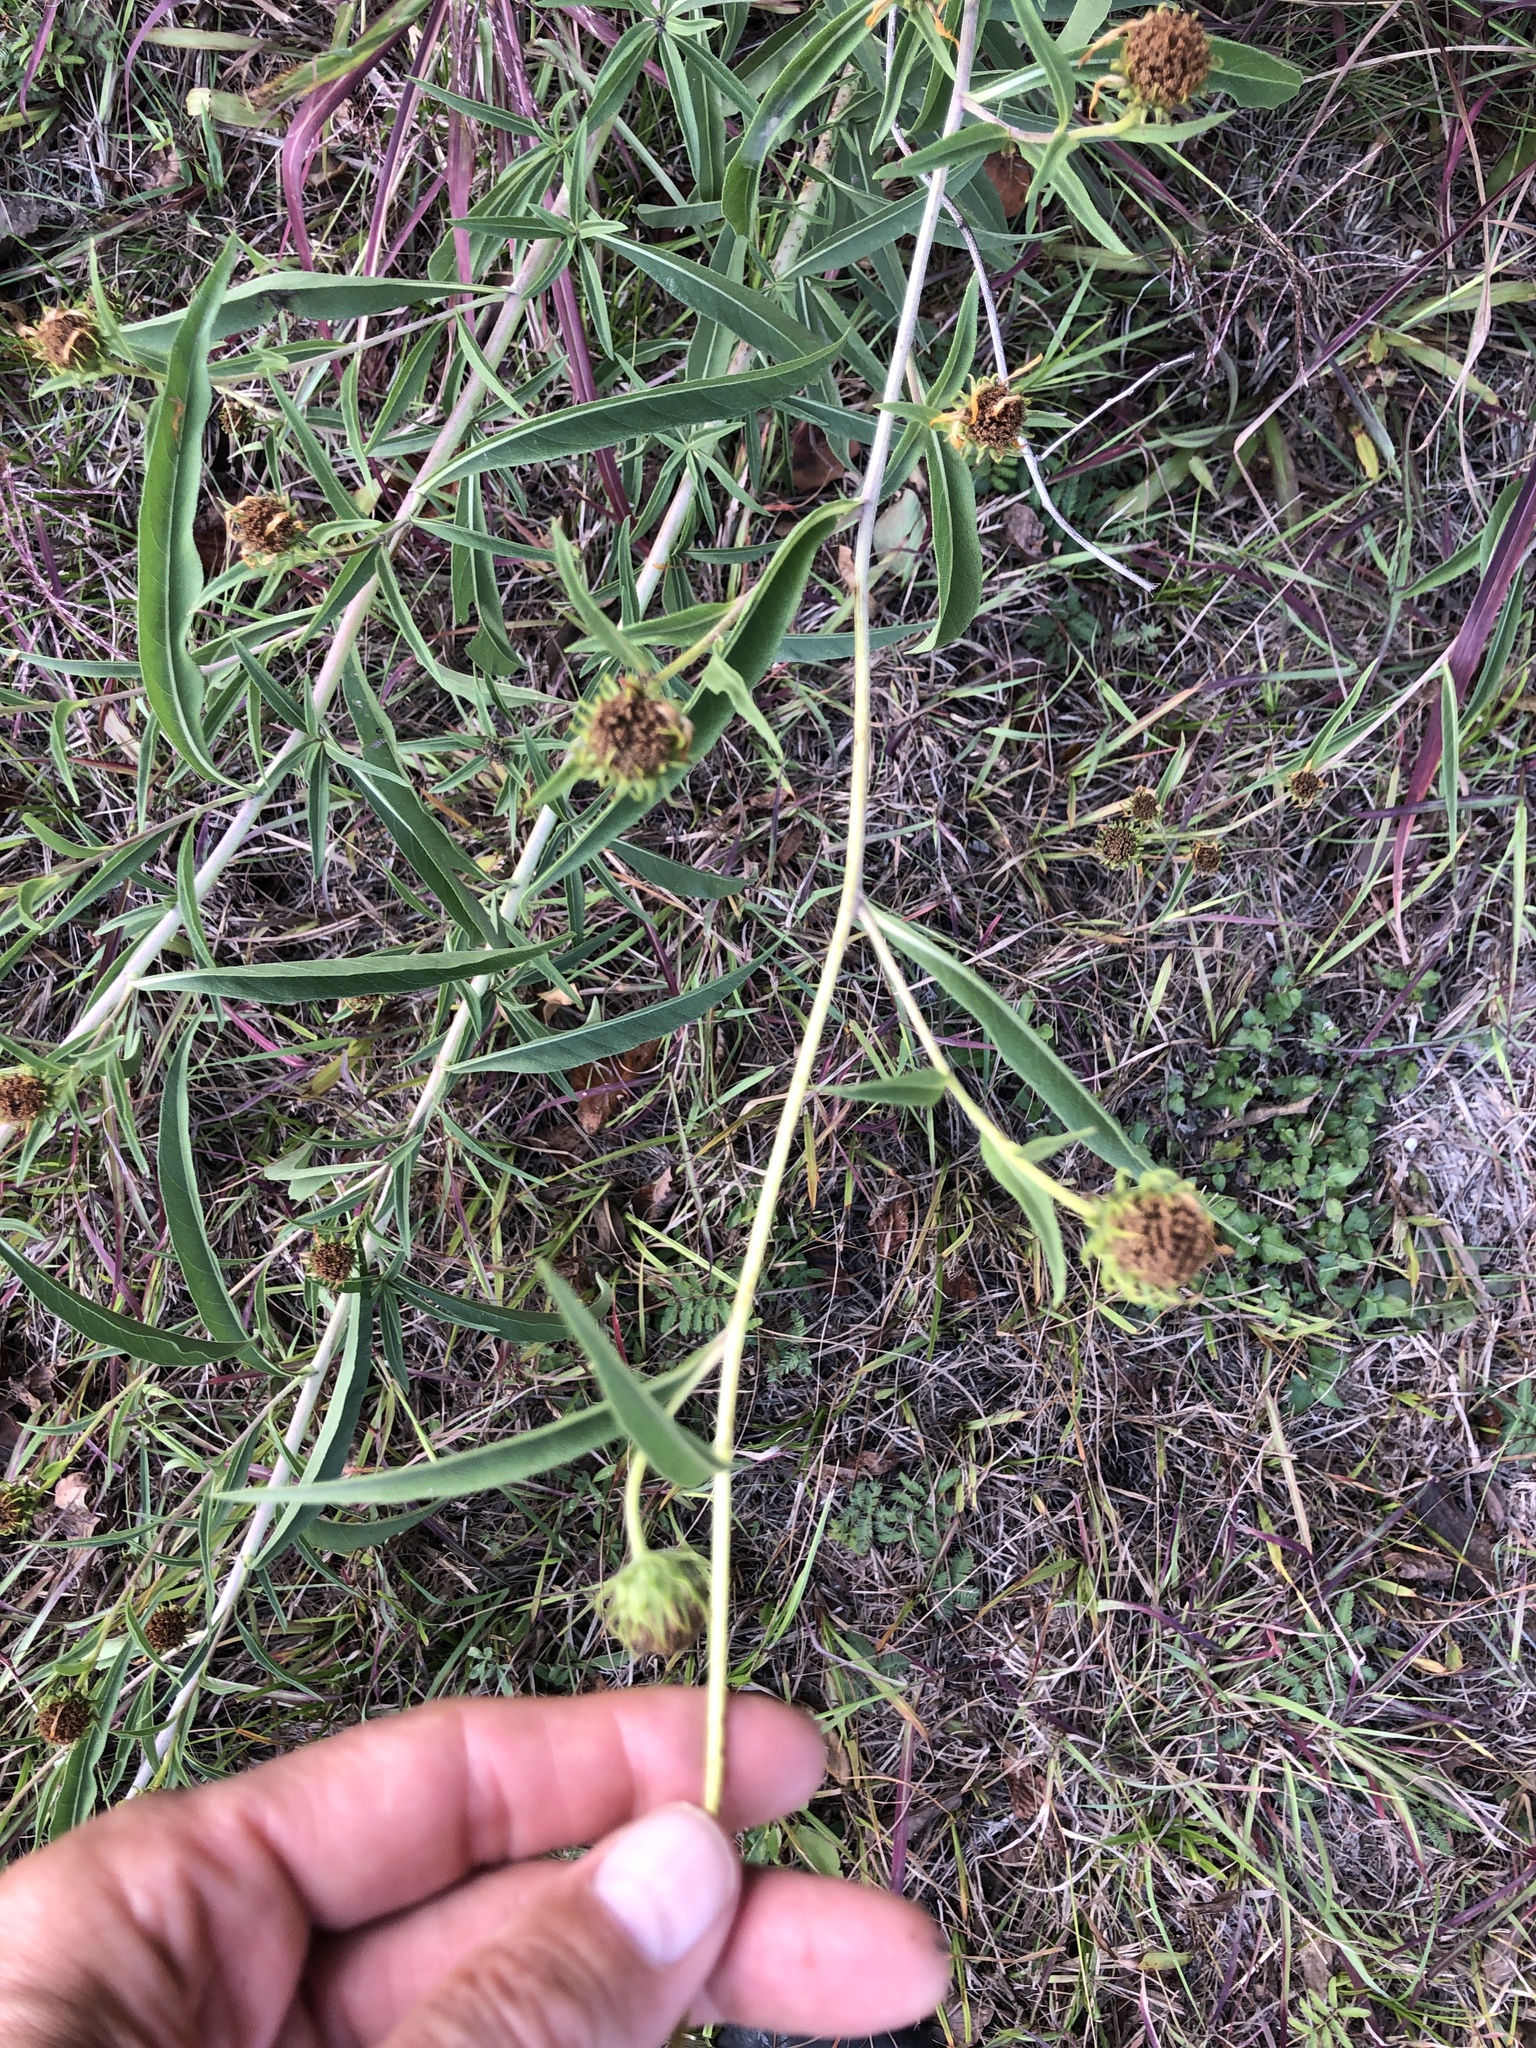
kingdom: Plantae
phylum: Tracheophyta
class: Magnoliopsida
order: Asterales
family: Asteraceae
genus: Helianthus
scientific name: Helianthus maximiliani
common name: Maximilian's sunflower
